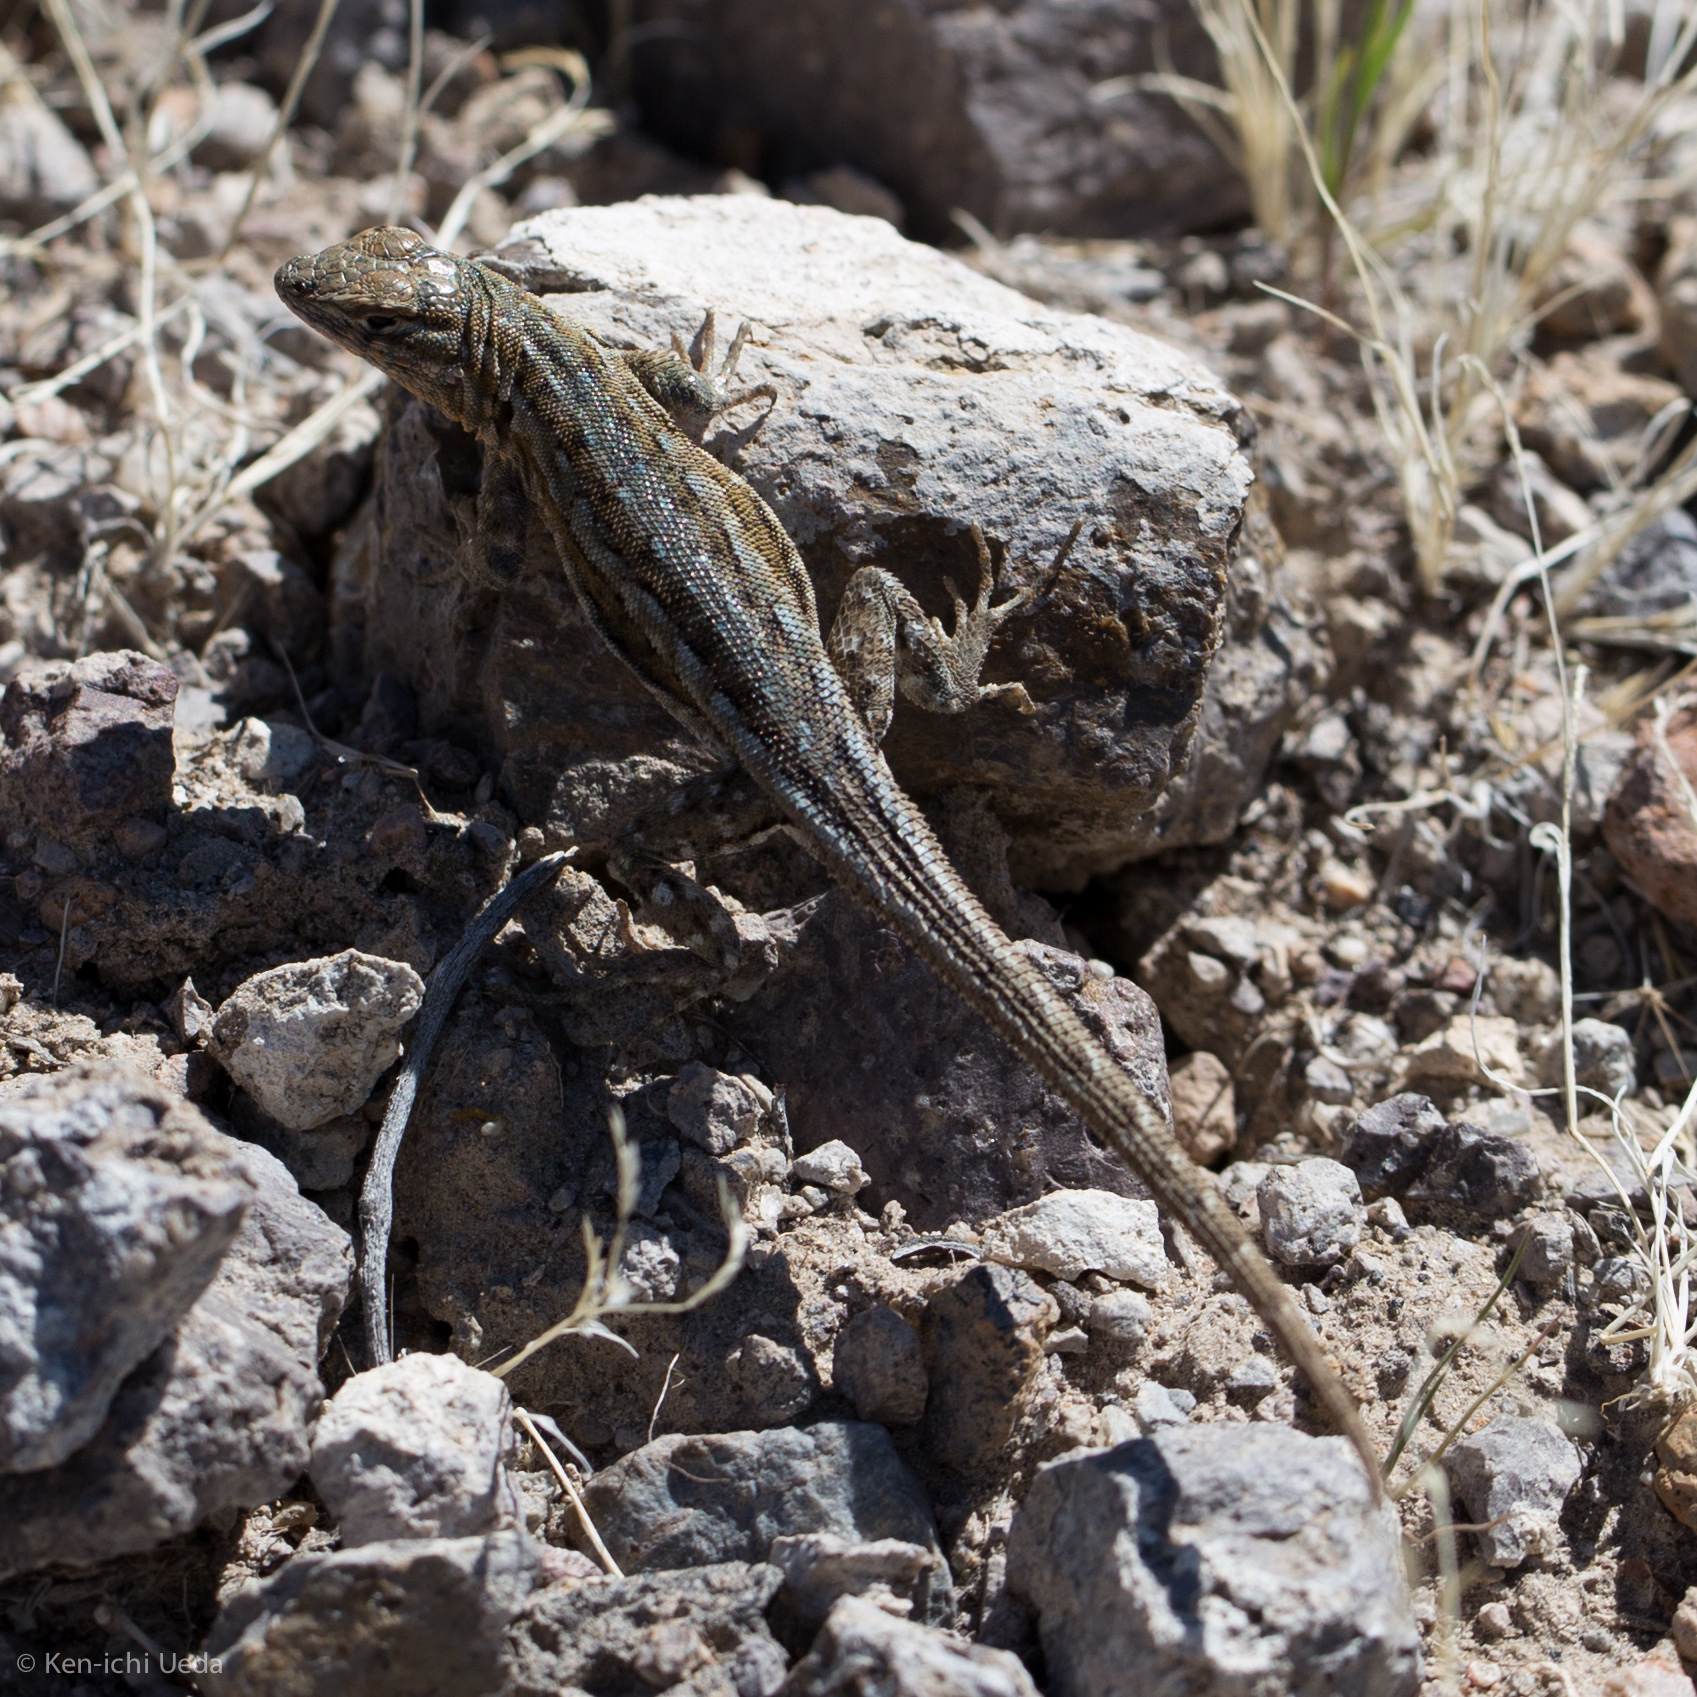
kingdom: Animalia
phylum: Chordata
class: Squamata
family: Phrynosomatidae
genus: Uta
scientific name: Uta stansburiana
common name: Side-blotched lizard
